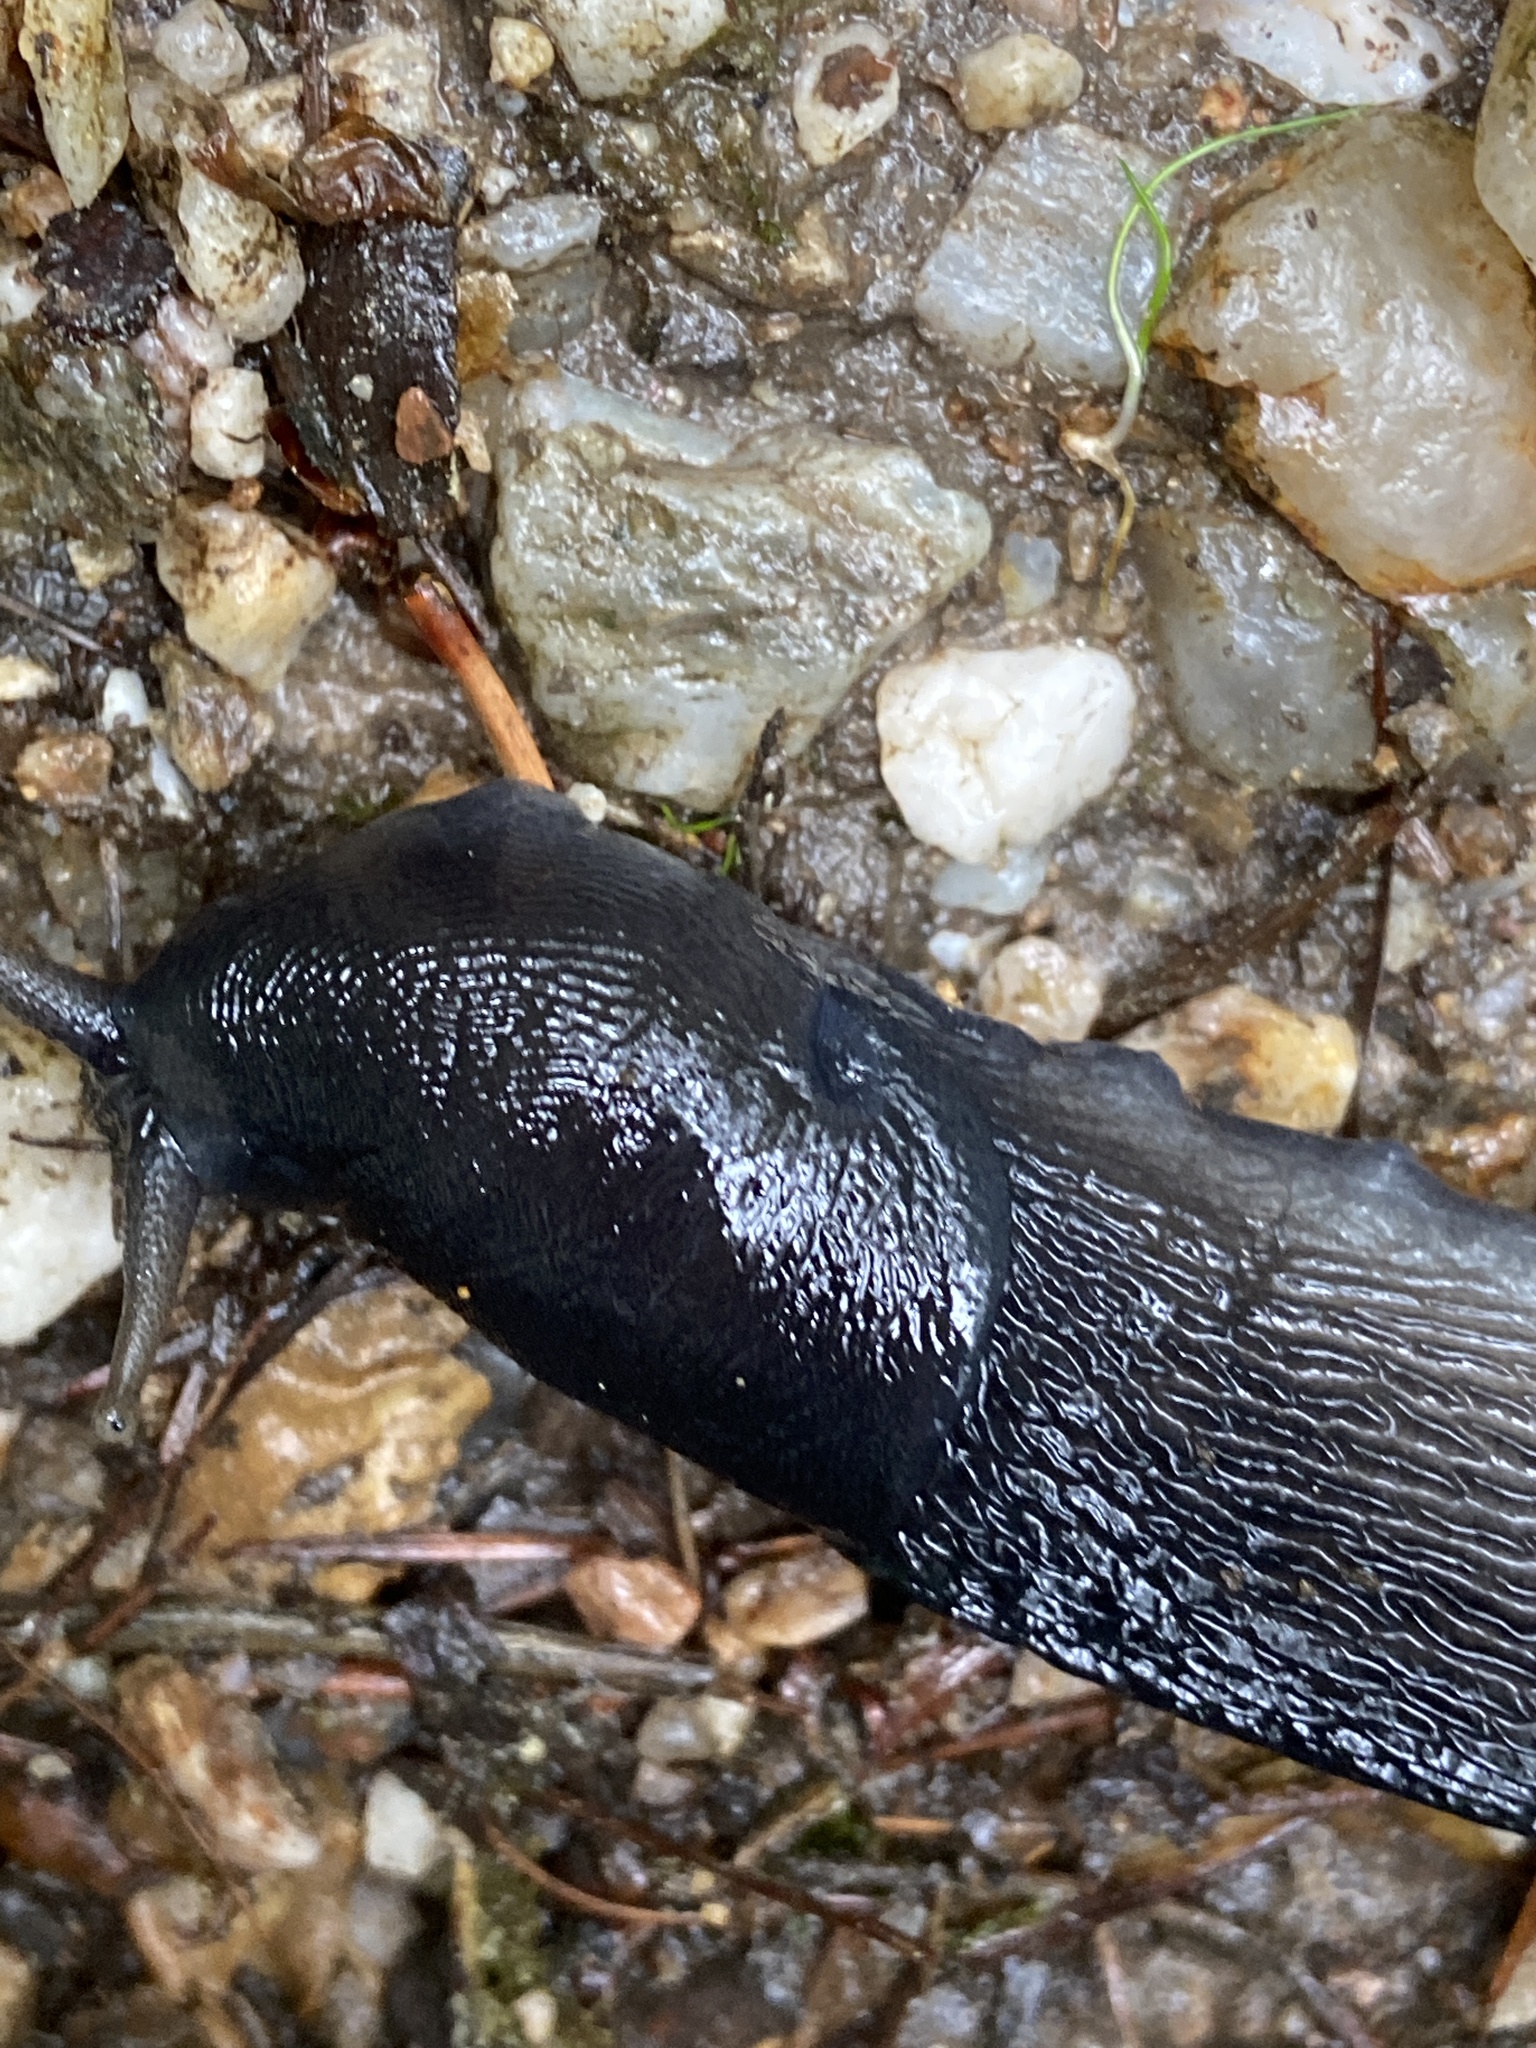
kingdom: Animalia
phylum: Mollusca
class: Gastropoda
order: Stylommatophora
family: Limacidae
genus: Limax
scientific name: Limax cinereoniger
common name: Ash-black slug
